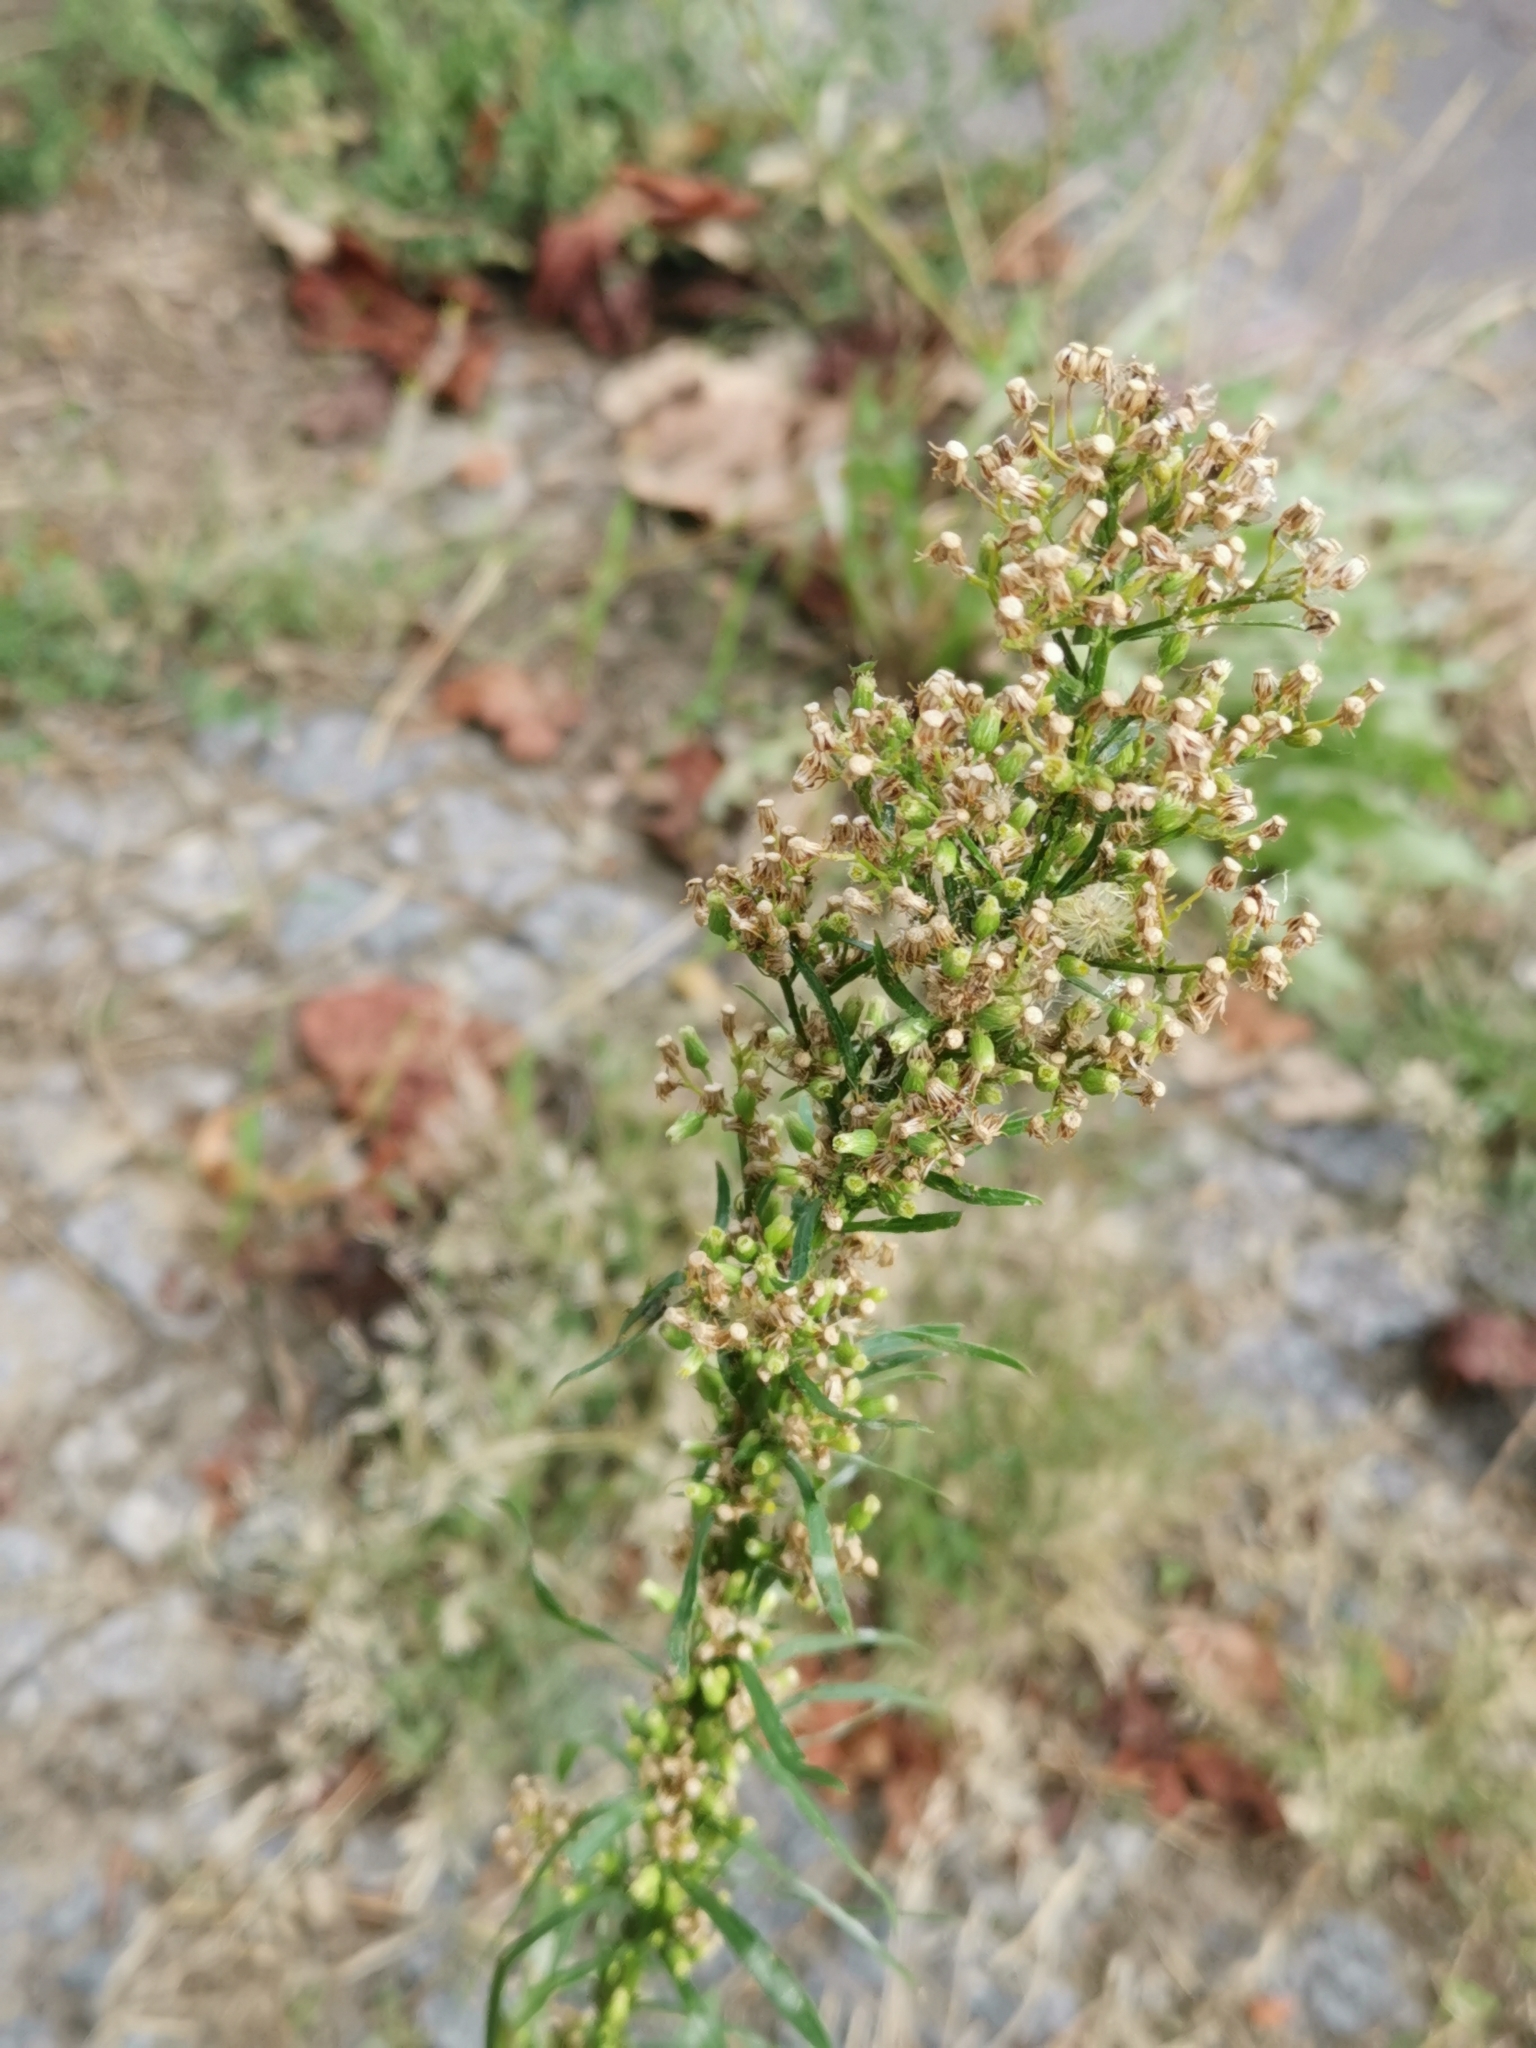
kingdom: Plantae
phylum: Tracheophyta
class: Magnoliopsida
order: Asterales
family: Asteraceae
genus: Erigeron
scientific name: Erigeron canadensis
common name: Canadian fleabane
